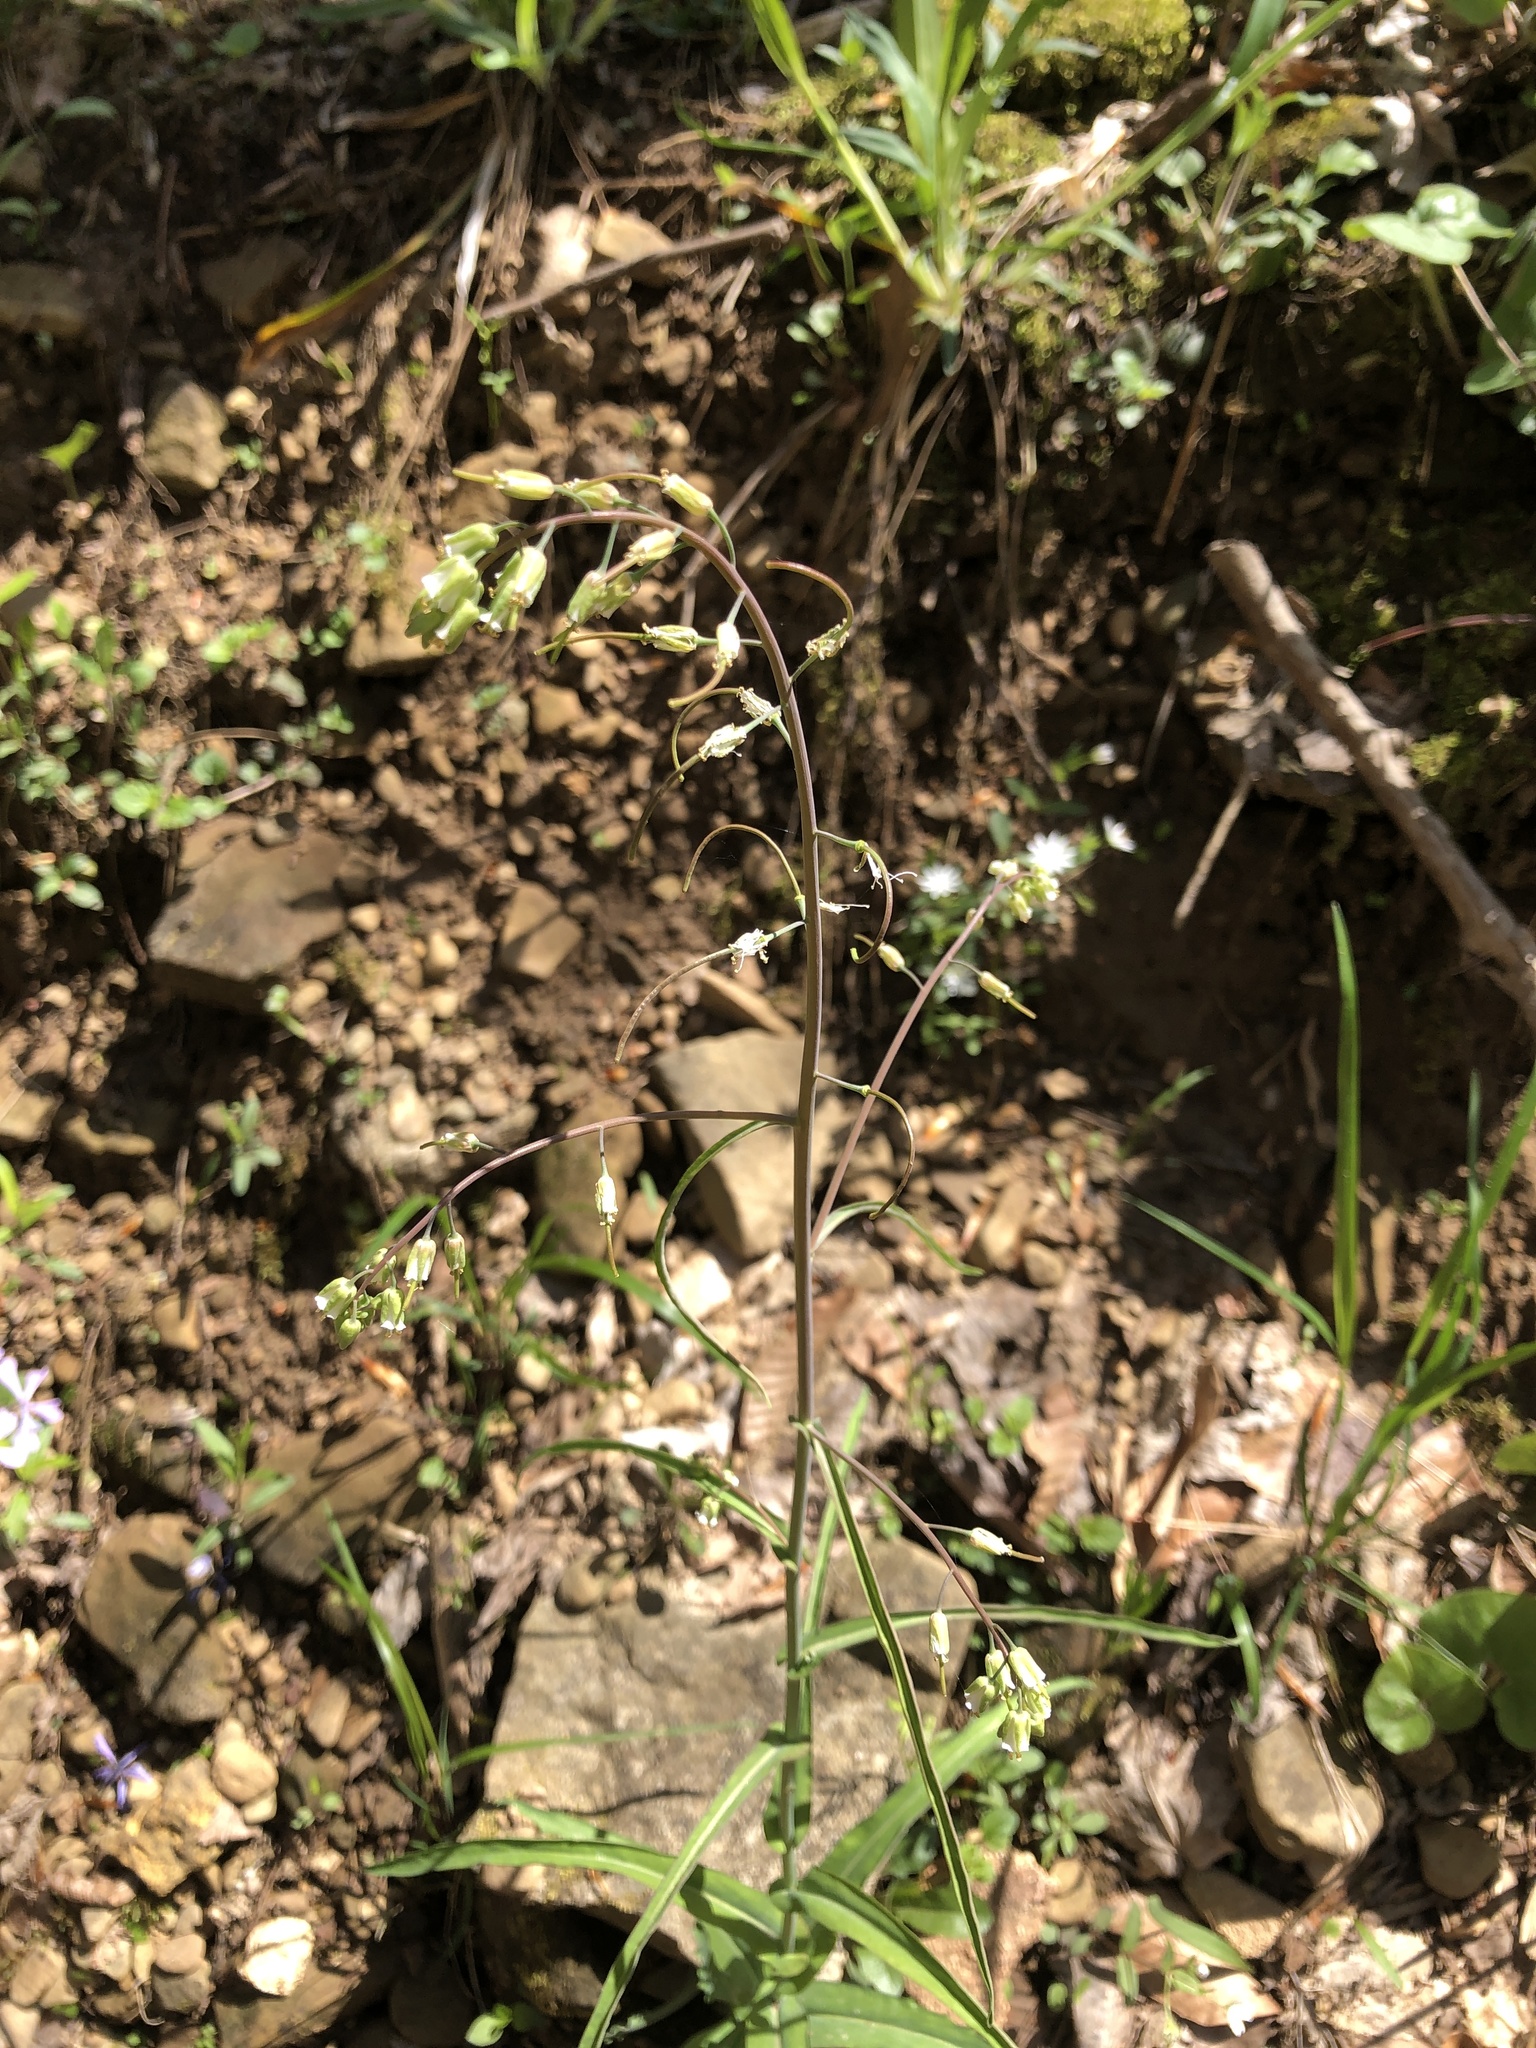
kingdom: Plantae
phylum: Tracheophyta
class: Magnoliopsida
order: Brassicales
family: Brassicaceae
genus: Borodinia
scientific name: Borodinia laevigata
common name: Smooth rockcress
